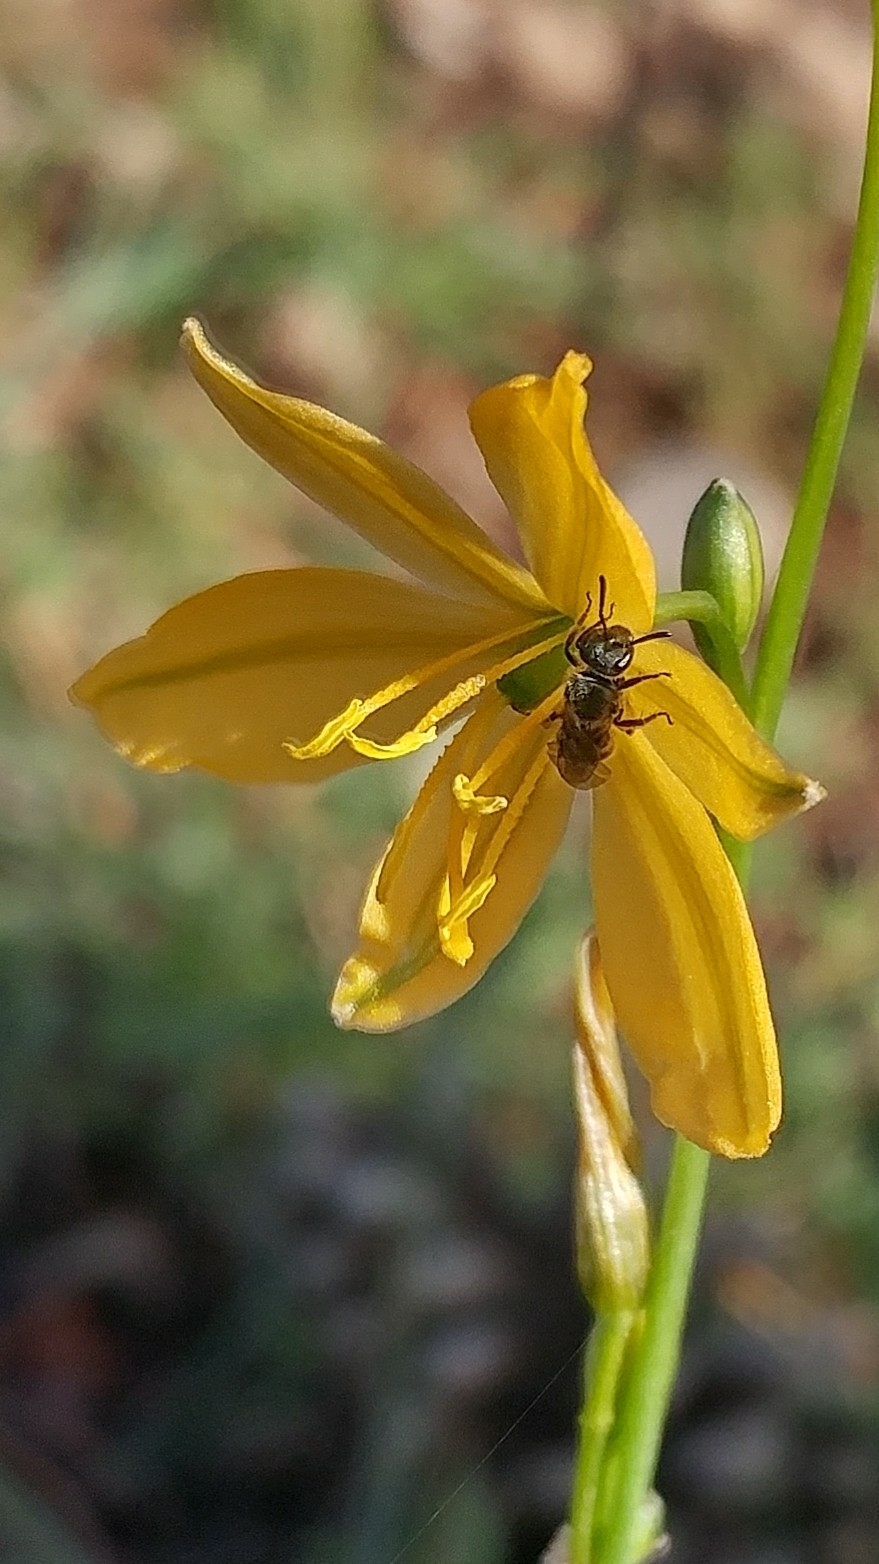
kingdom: Plantae
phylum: Tracheophyta
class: Liliopsida
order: Asparagales
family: Asparagaceae
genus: Echeandia
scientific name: Echeandia flavescens
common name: Amberlily
